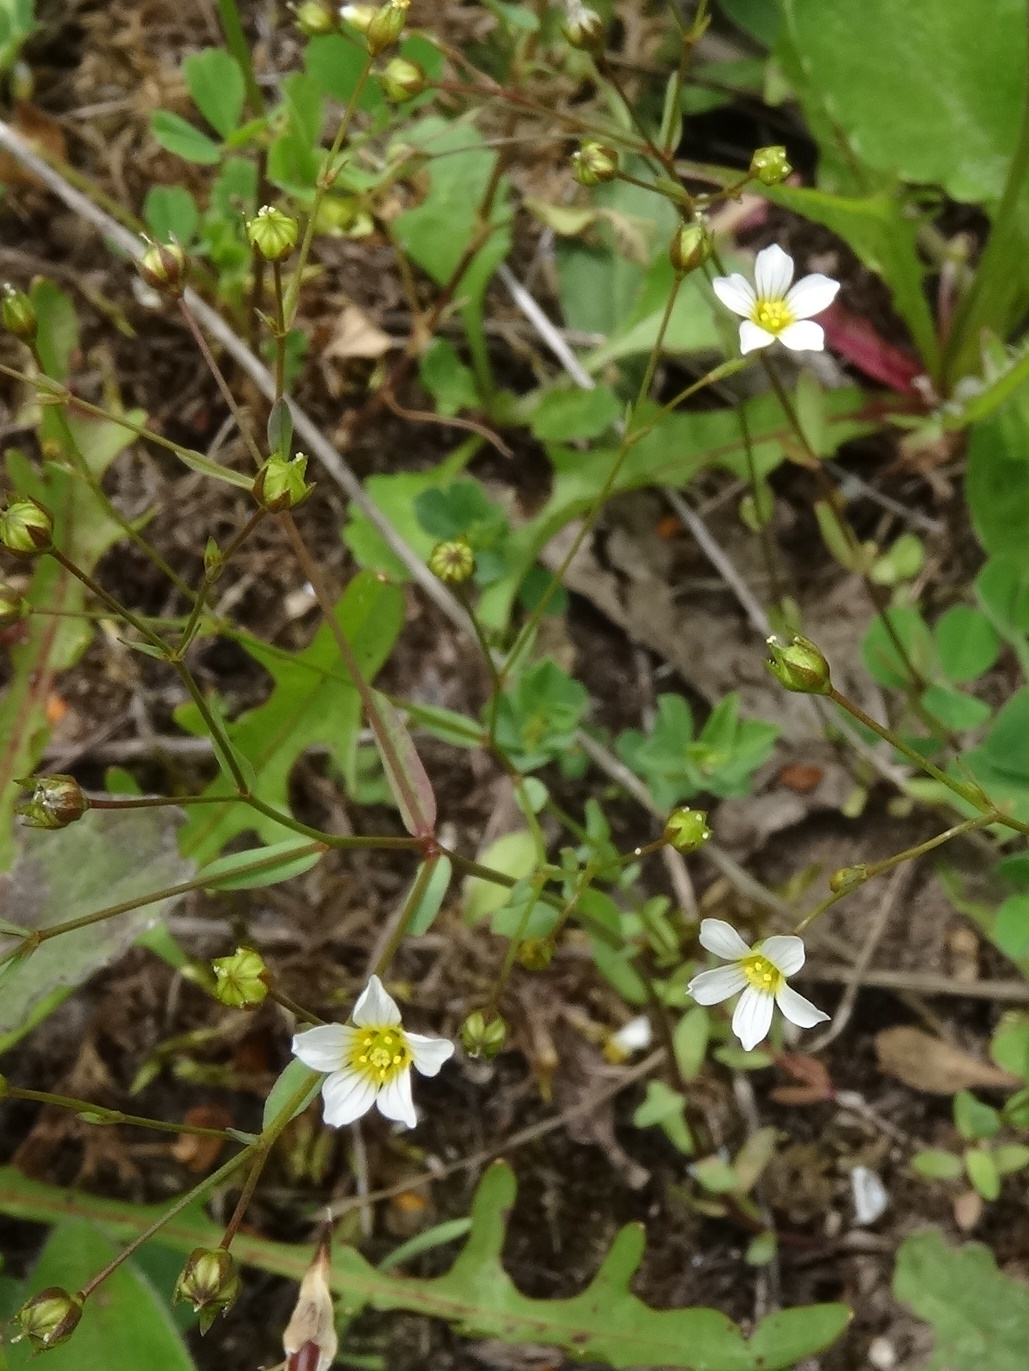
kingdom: Plantae
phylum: Tracheophyta
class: Magnoliopsida
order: Malpighiales
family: Linaceae
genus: Linum
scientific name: Linum catharticum
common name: Fairy flax
